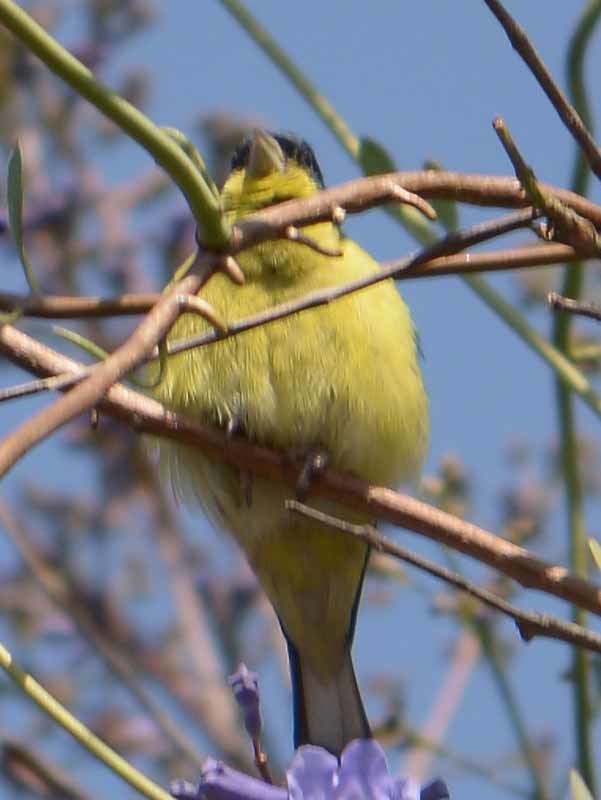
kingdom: Animalia
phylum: Chordata
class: Aves
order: Passeriformes
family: Fringillidae
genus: Spinus
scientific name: Spinus psaltria
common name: Lesser goldfinch
